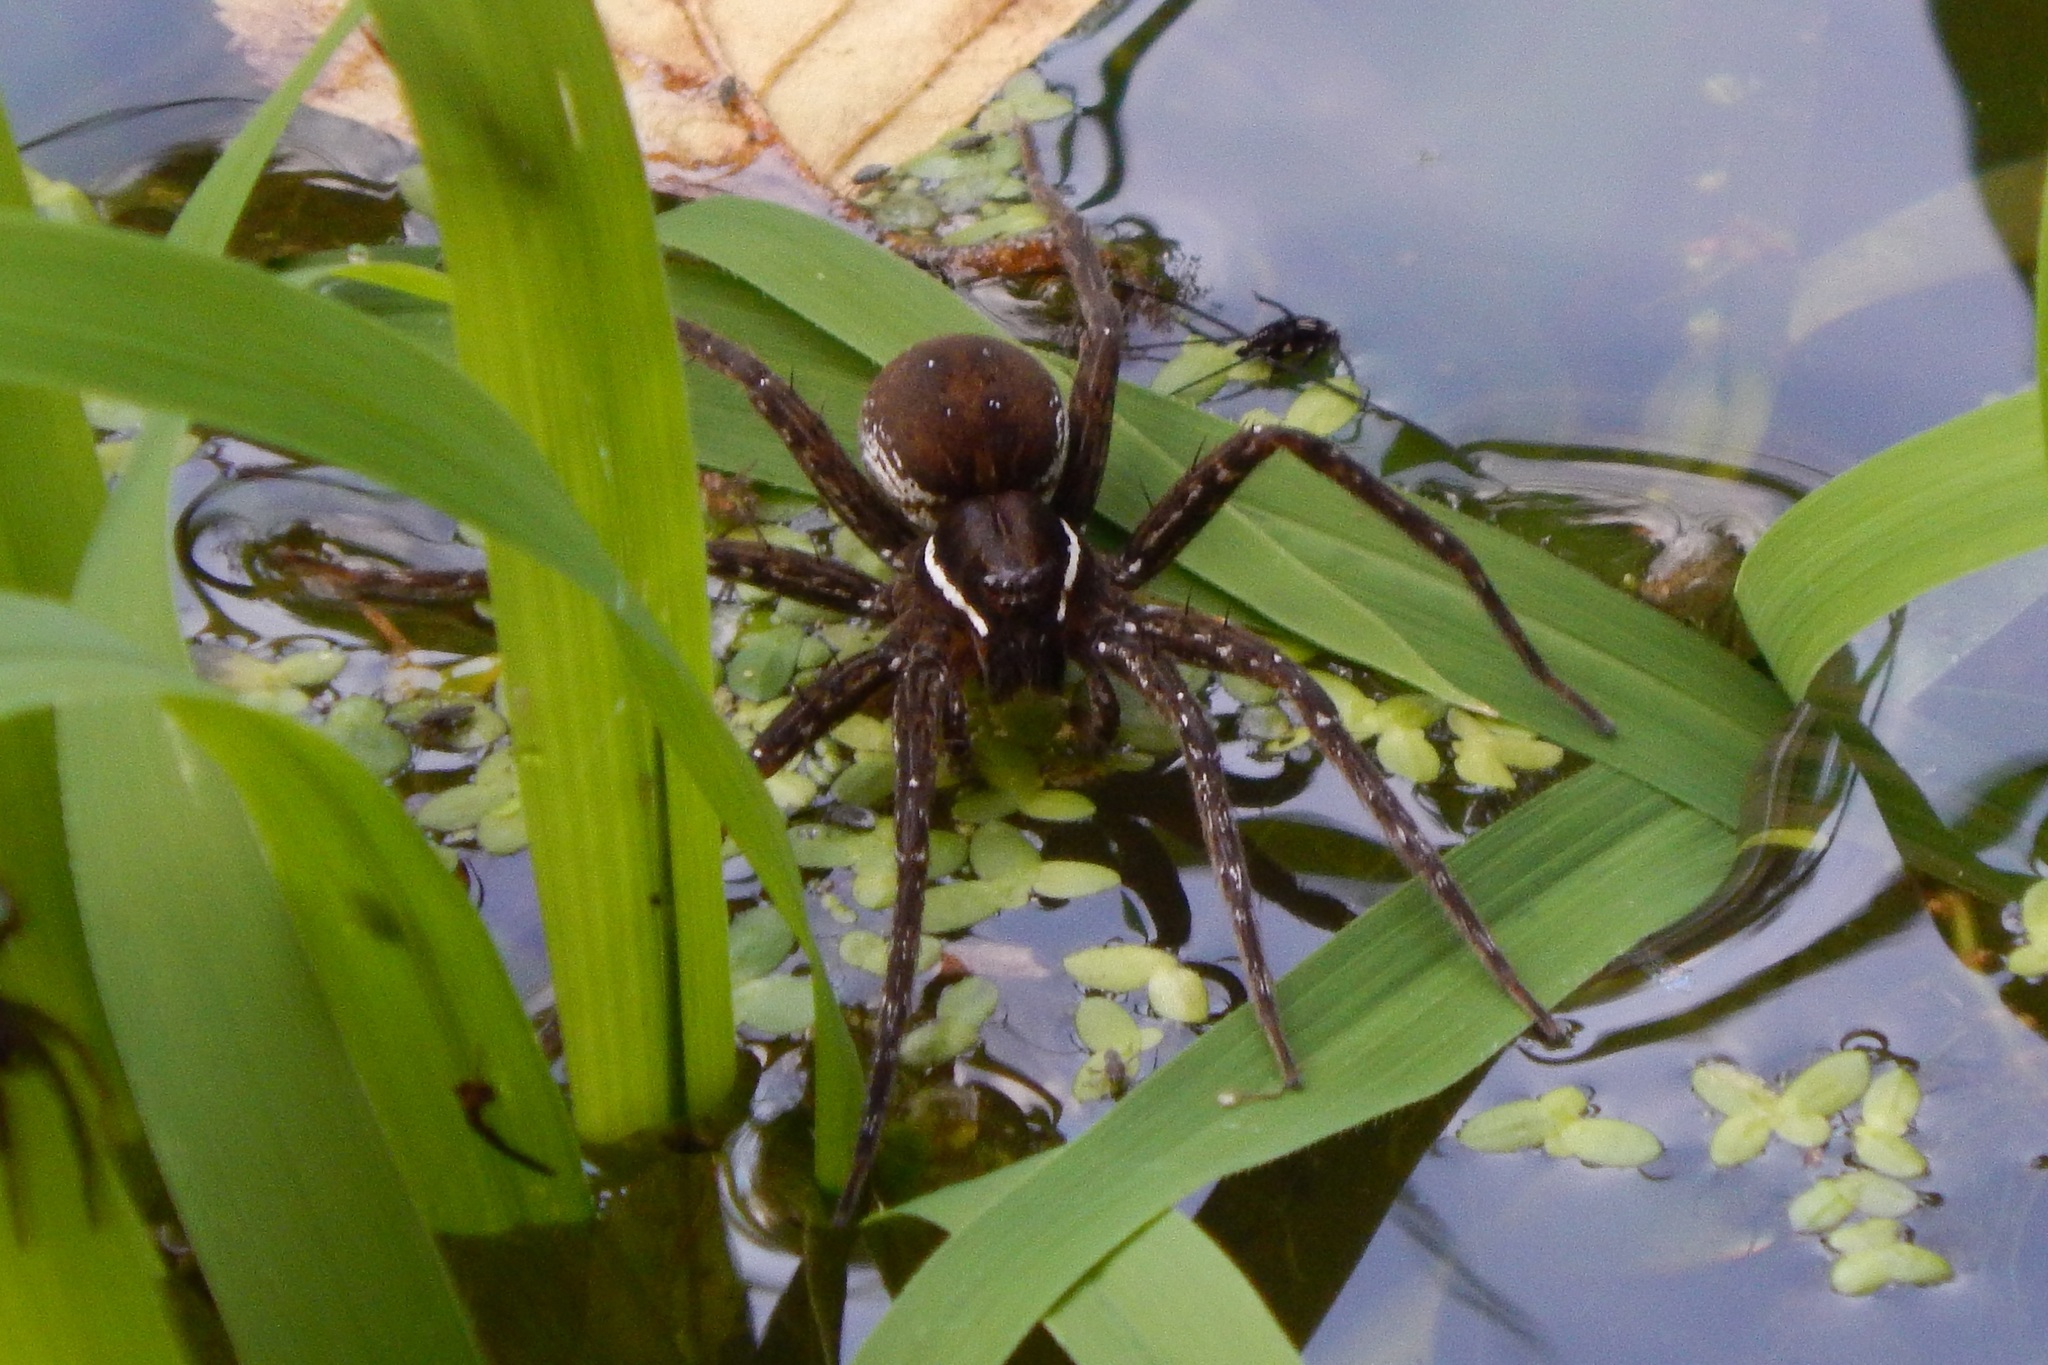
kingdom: Animalia
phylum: Arthropoda
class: Arachnida
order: Araneae
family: Pisauridae
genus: Dolomedes
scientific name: Dolomedes triton
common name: Six-spotted fishing spider
